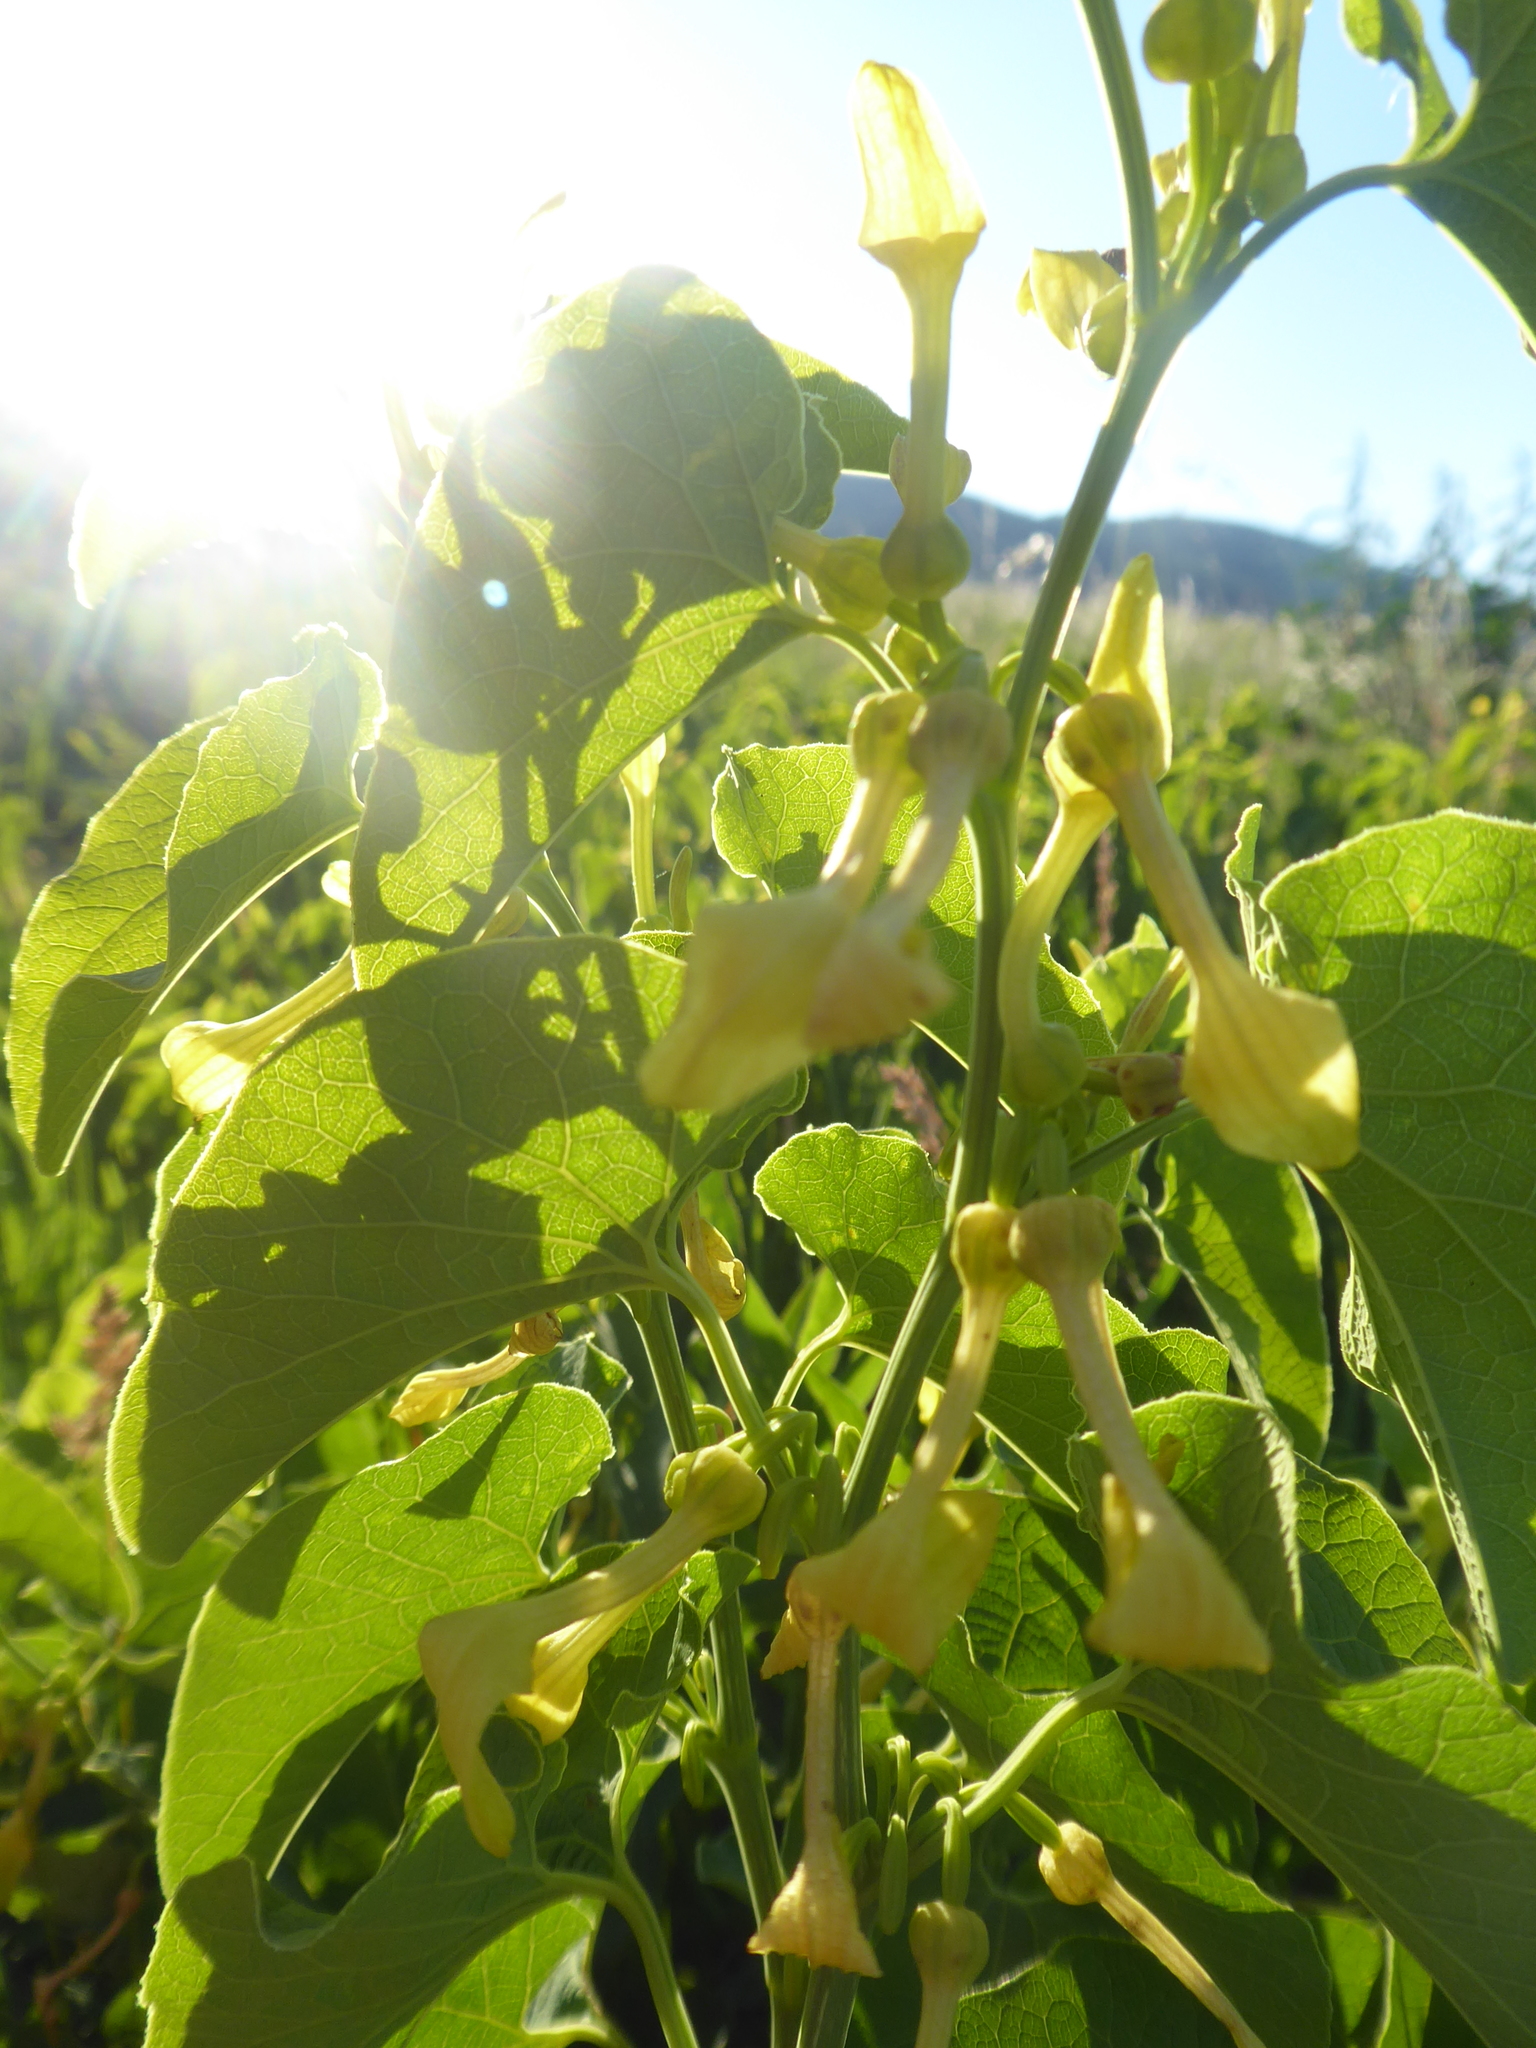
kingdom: Plantae
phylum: Tracheophyta
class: Magnoliopsida
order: Piperales
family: Aristolochiaceae
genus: Aristolochia
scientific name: Aristolochia clematitis
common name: Birthwort
